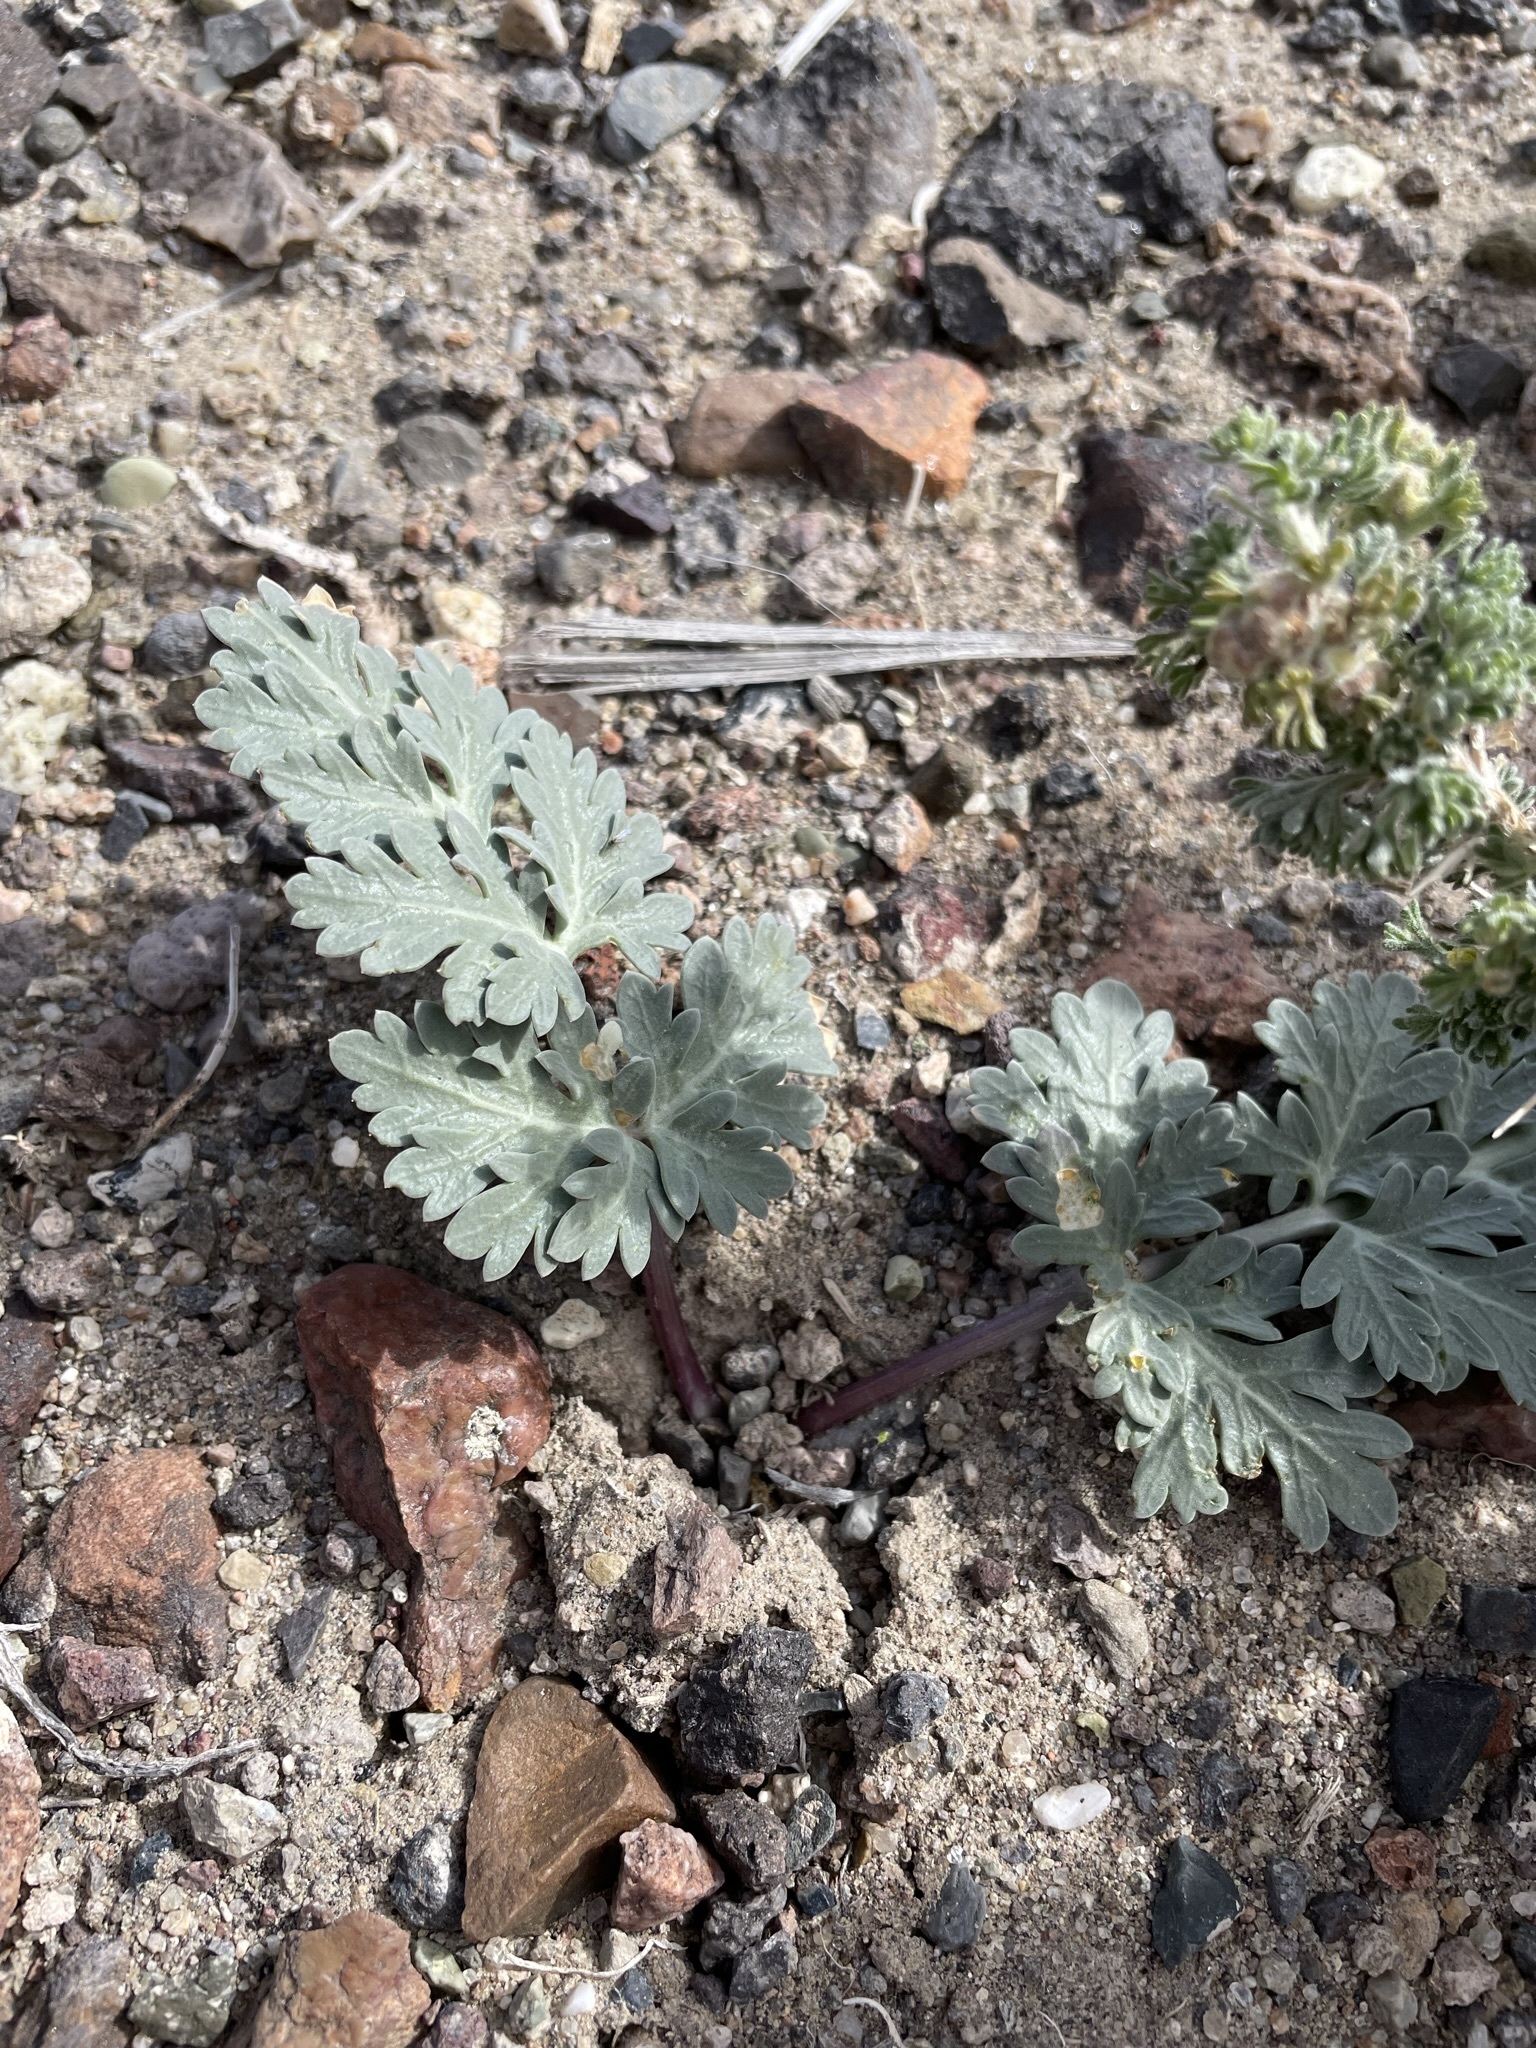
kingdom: Plantae
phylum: Tracheophyta
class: Magnoliopsida
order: Apiales
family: Apiaceae
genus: Cymopterus
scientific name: Cymopterus globosus
